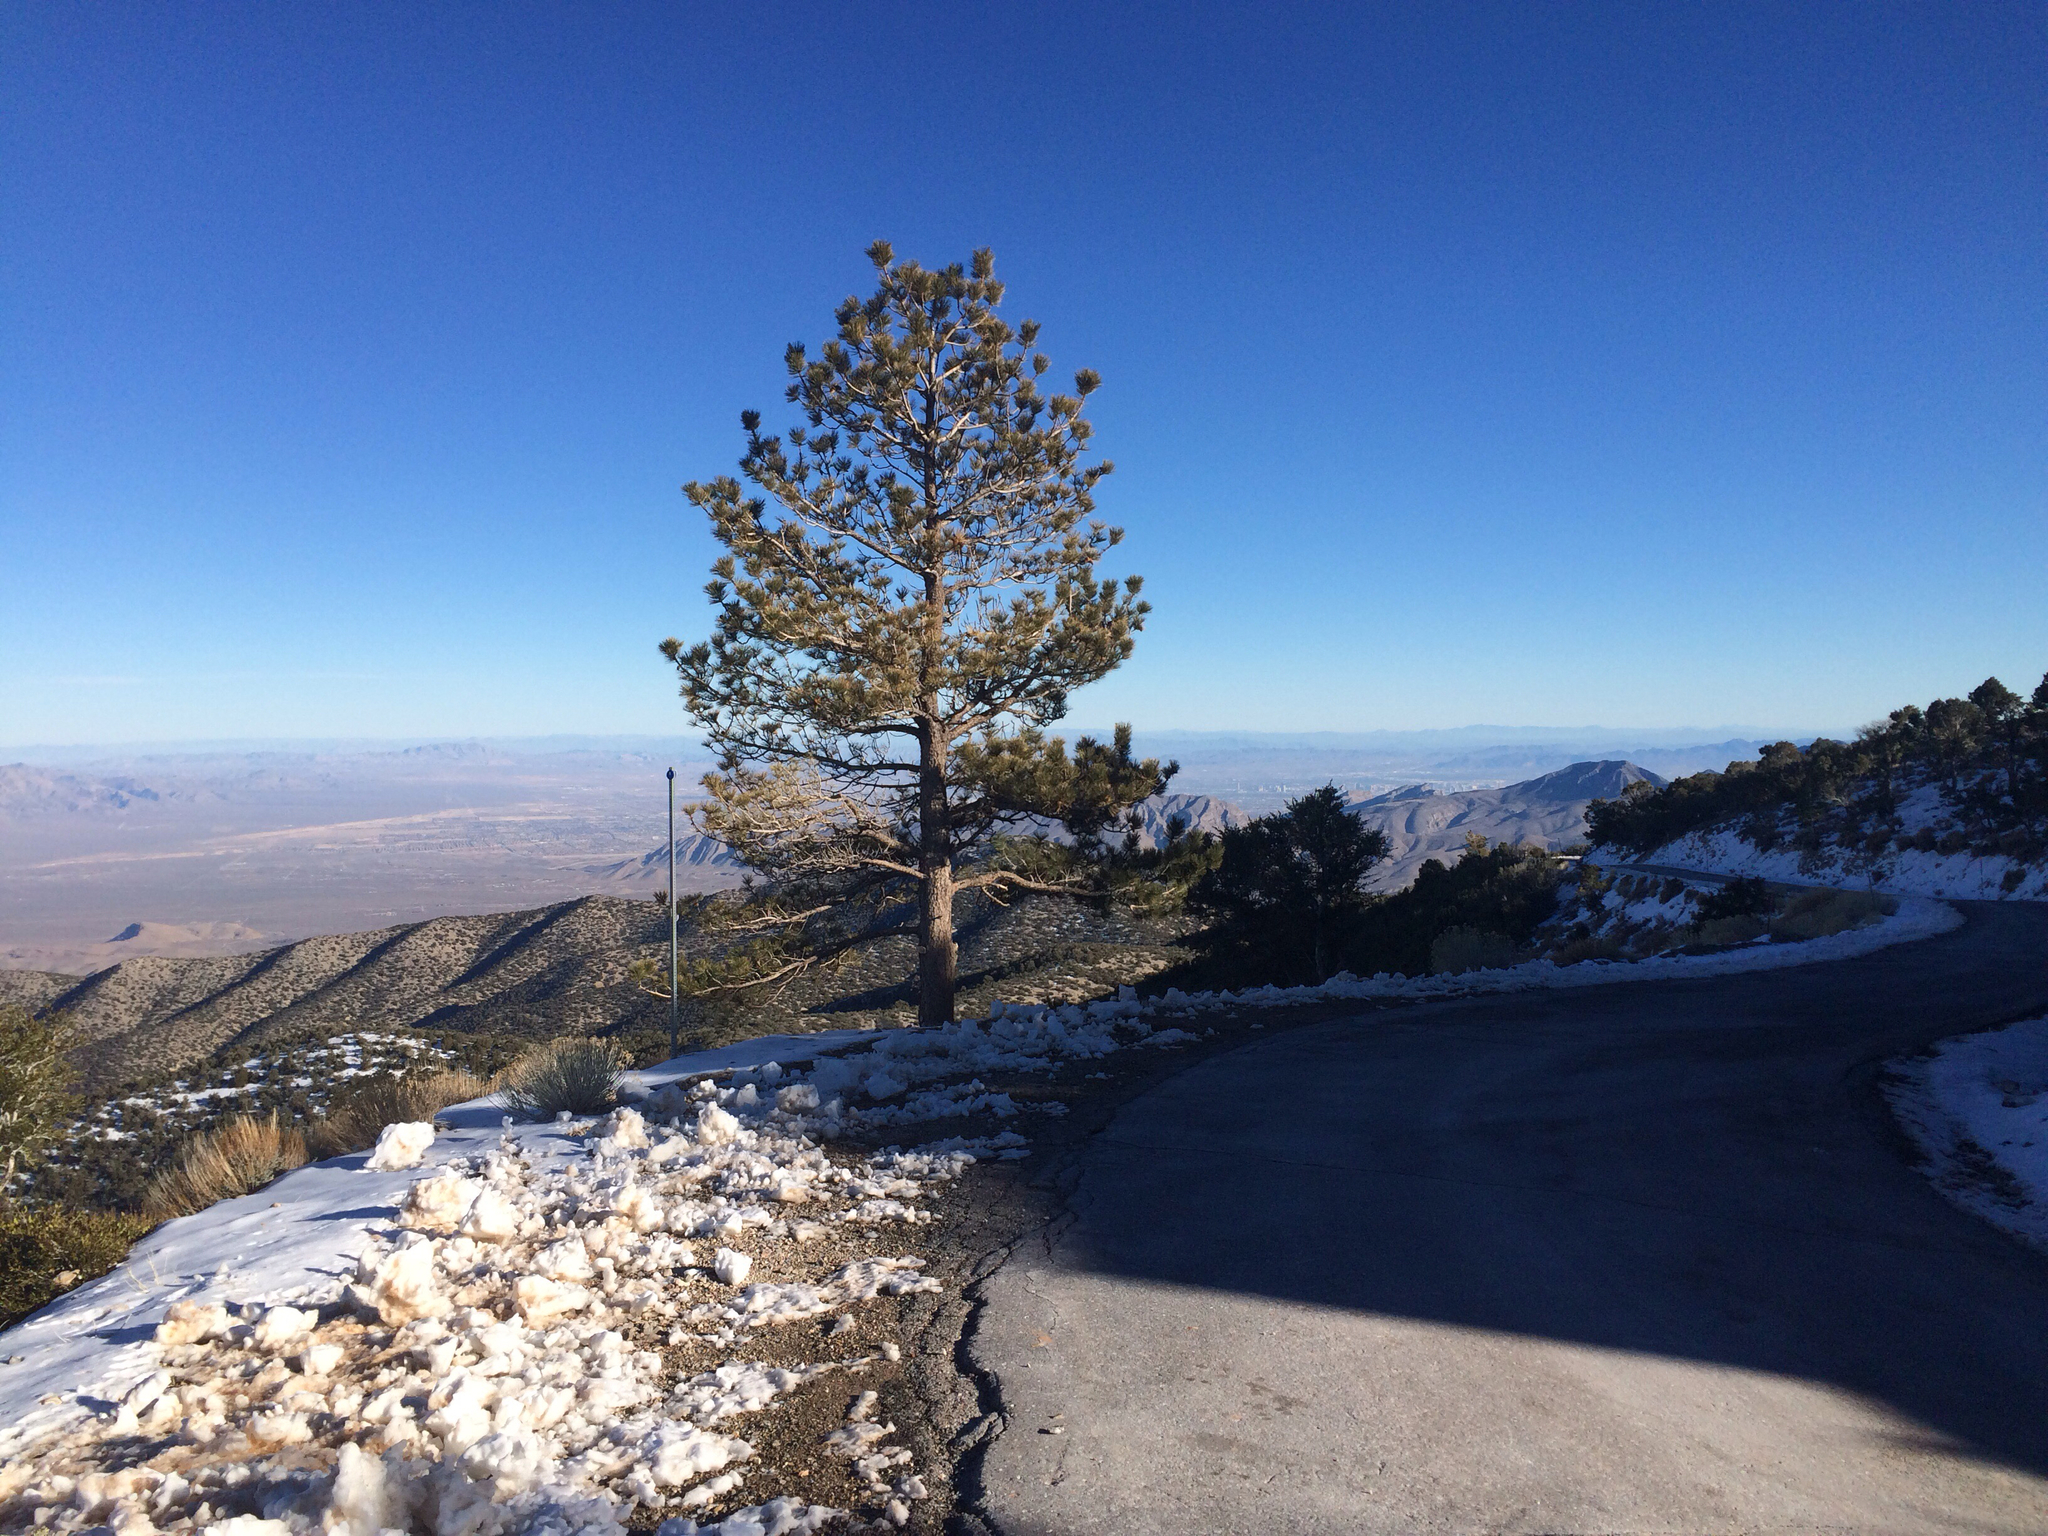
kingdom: Plantae
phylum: Tracheophyta
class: Pinopsida
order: Pinales
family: Pinaceae
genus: Pinus
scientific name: Pinus ponderosa
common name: Western yellow-pine
